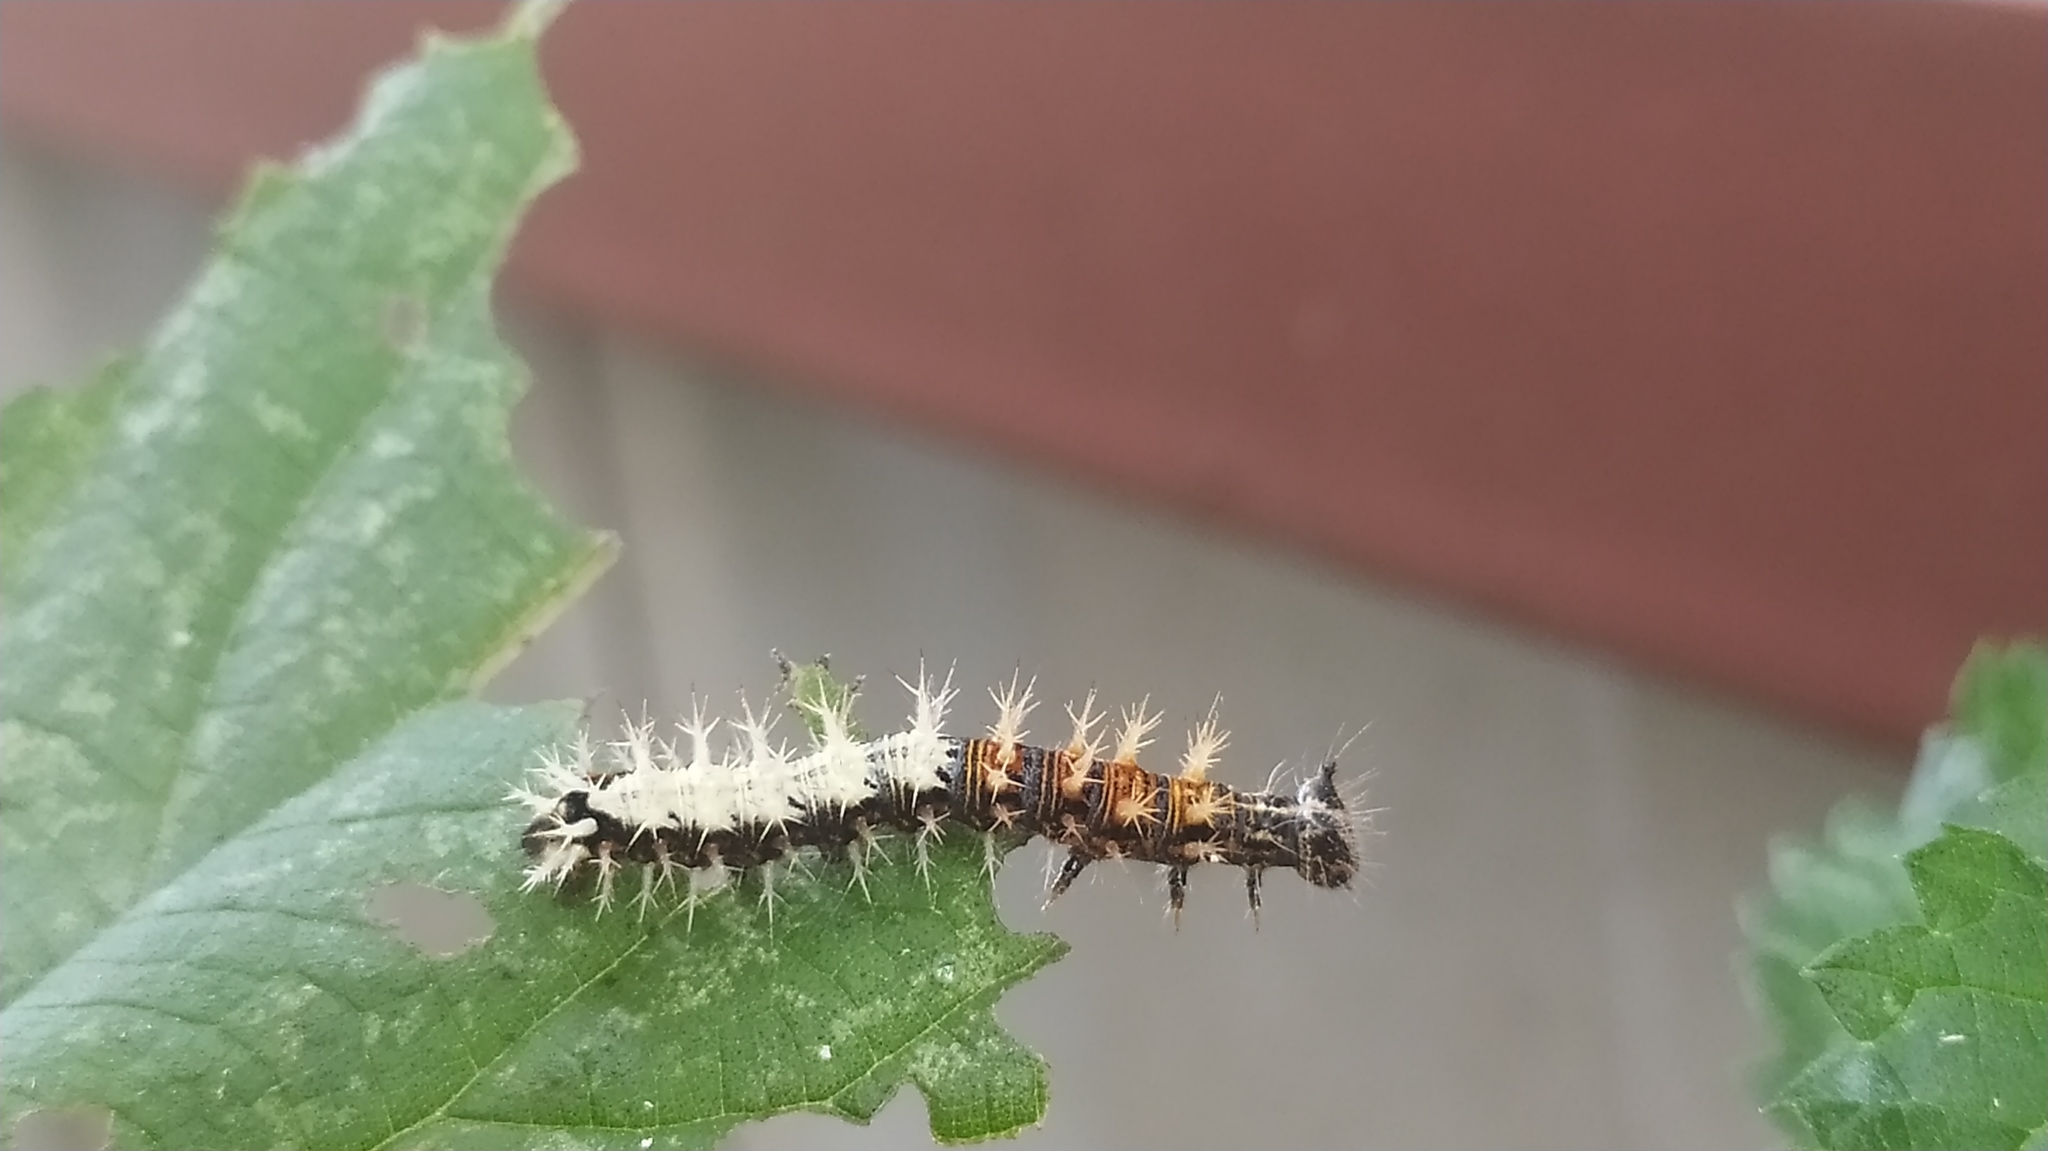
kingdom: Animalia
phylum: Arthropoda
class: Insecta
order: Lepidoptera
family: Nymphalidae
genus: Polygonia
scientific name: Polygonia c-album
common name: Comma
